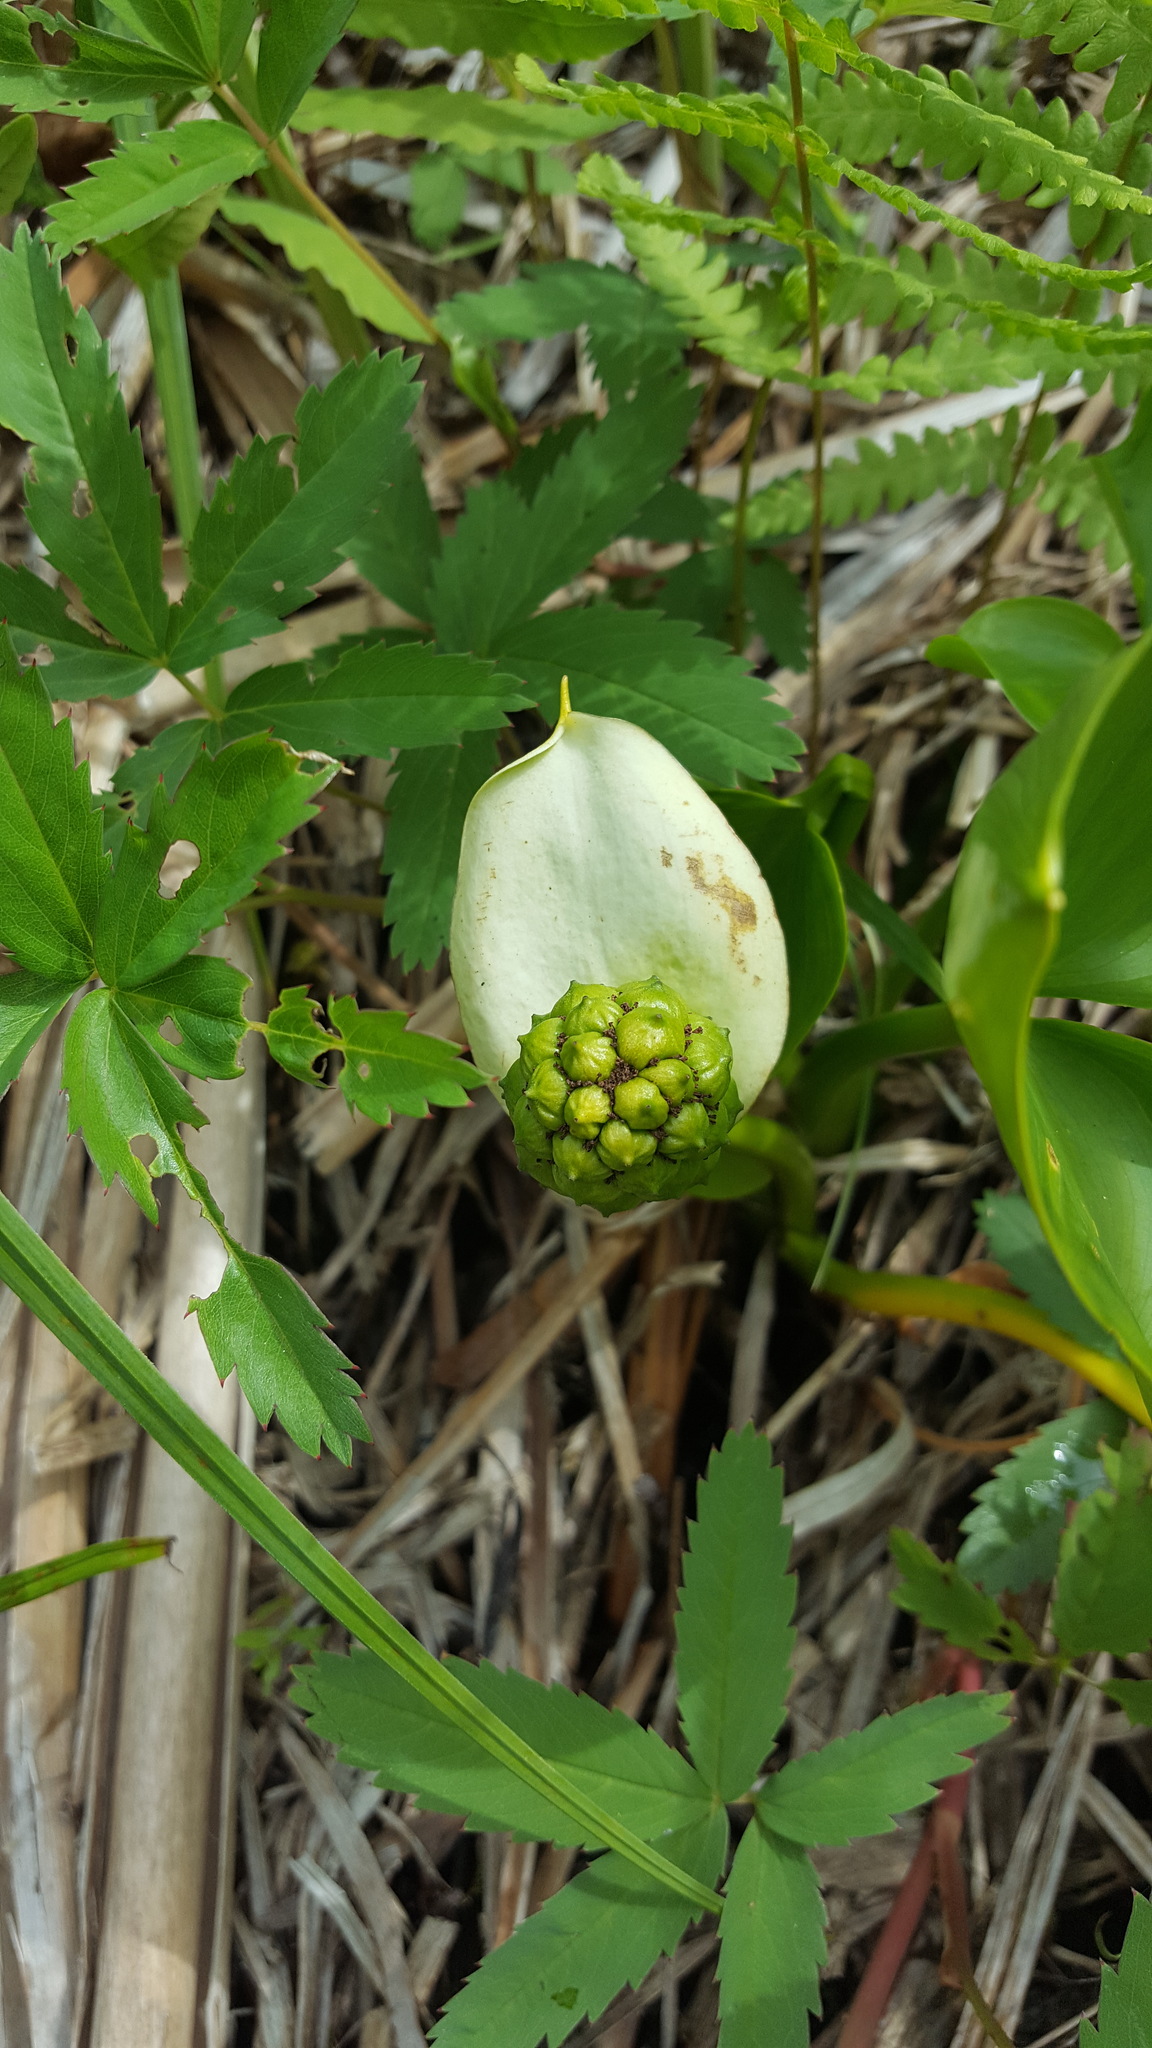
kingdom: Plantae
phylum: Tracheophyta
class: Liliopsida
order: Alismatales
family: Araceae
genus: Calla
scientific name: Calla palustris
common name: Bog arum
